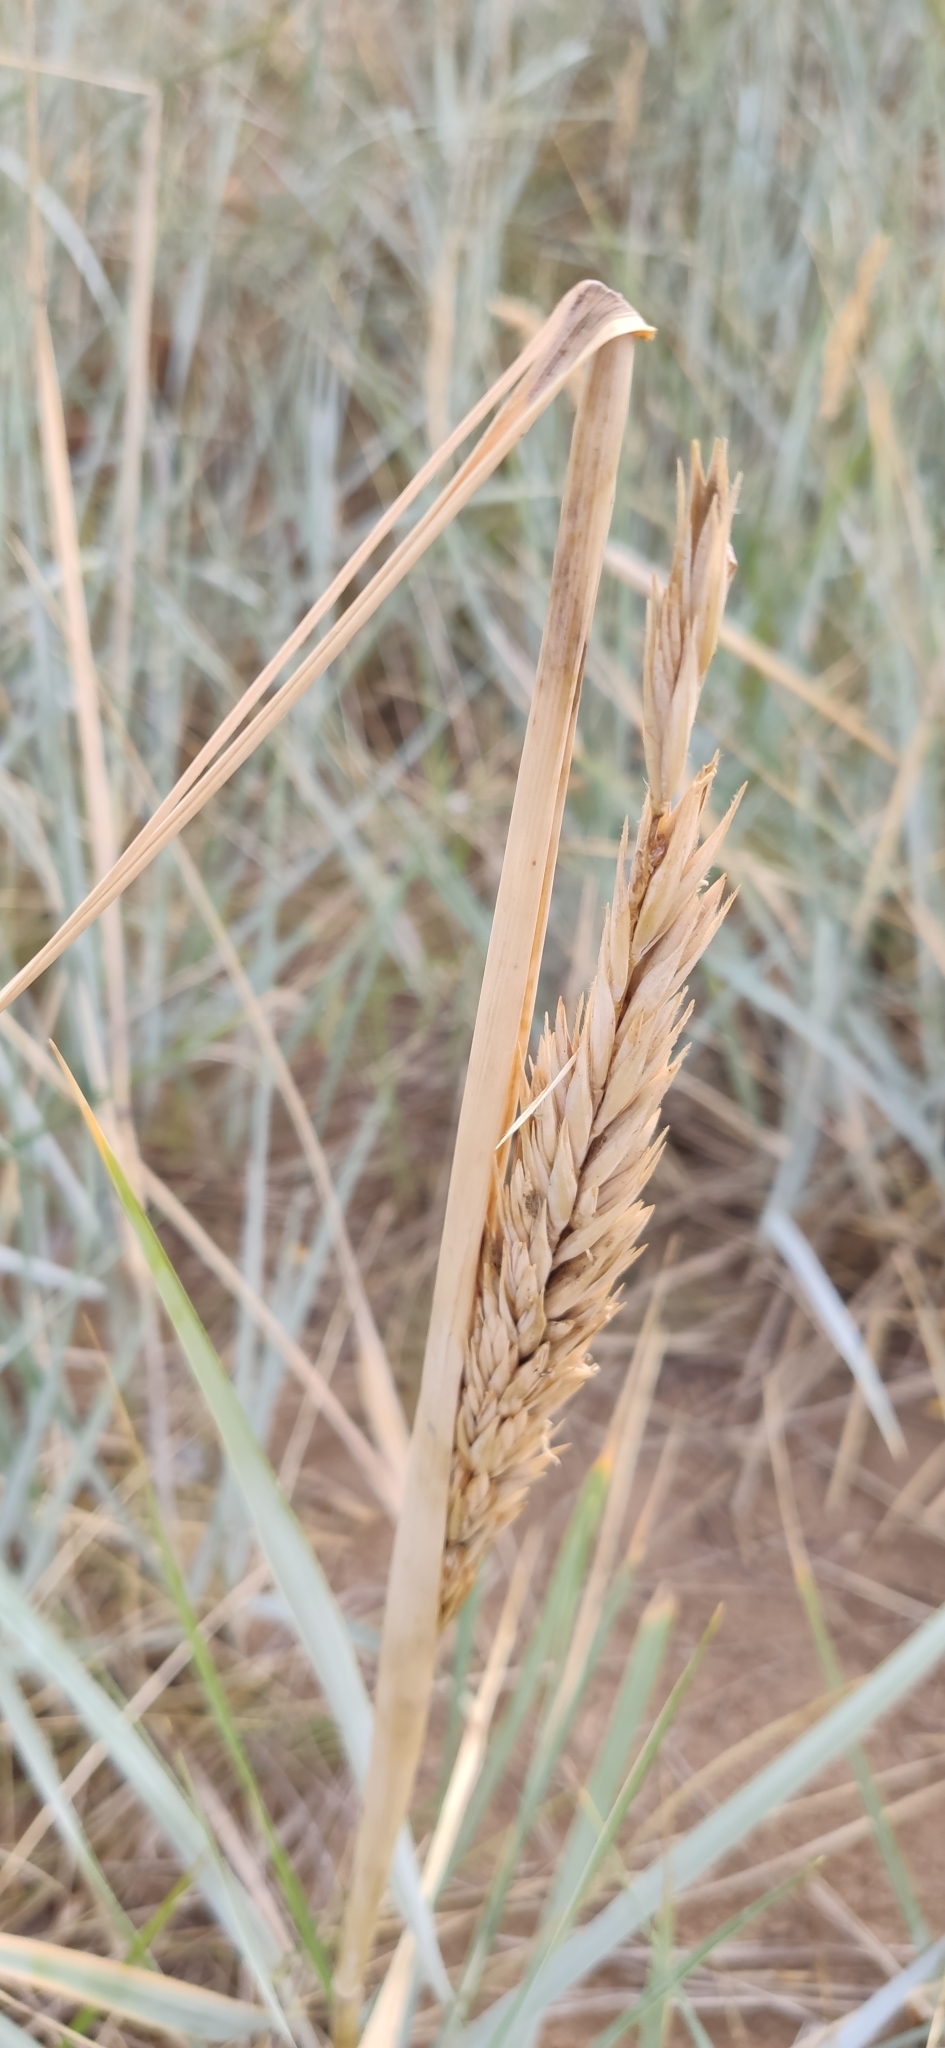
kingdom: Plantae
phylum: Tracheophyta
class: Liliopsida
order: Poales
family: Poaceae
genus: Leymus
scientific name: Leymus arenarius
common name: Lyme-grass
